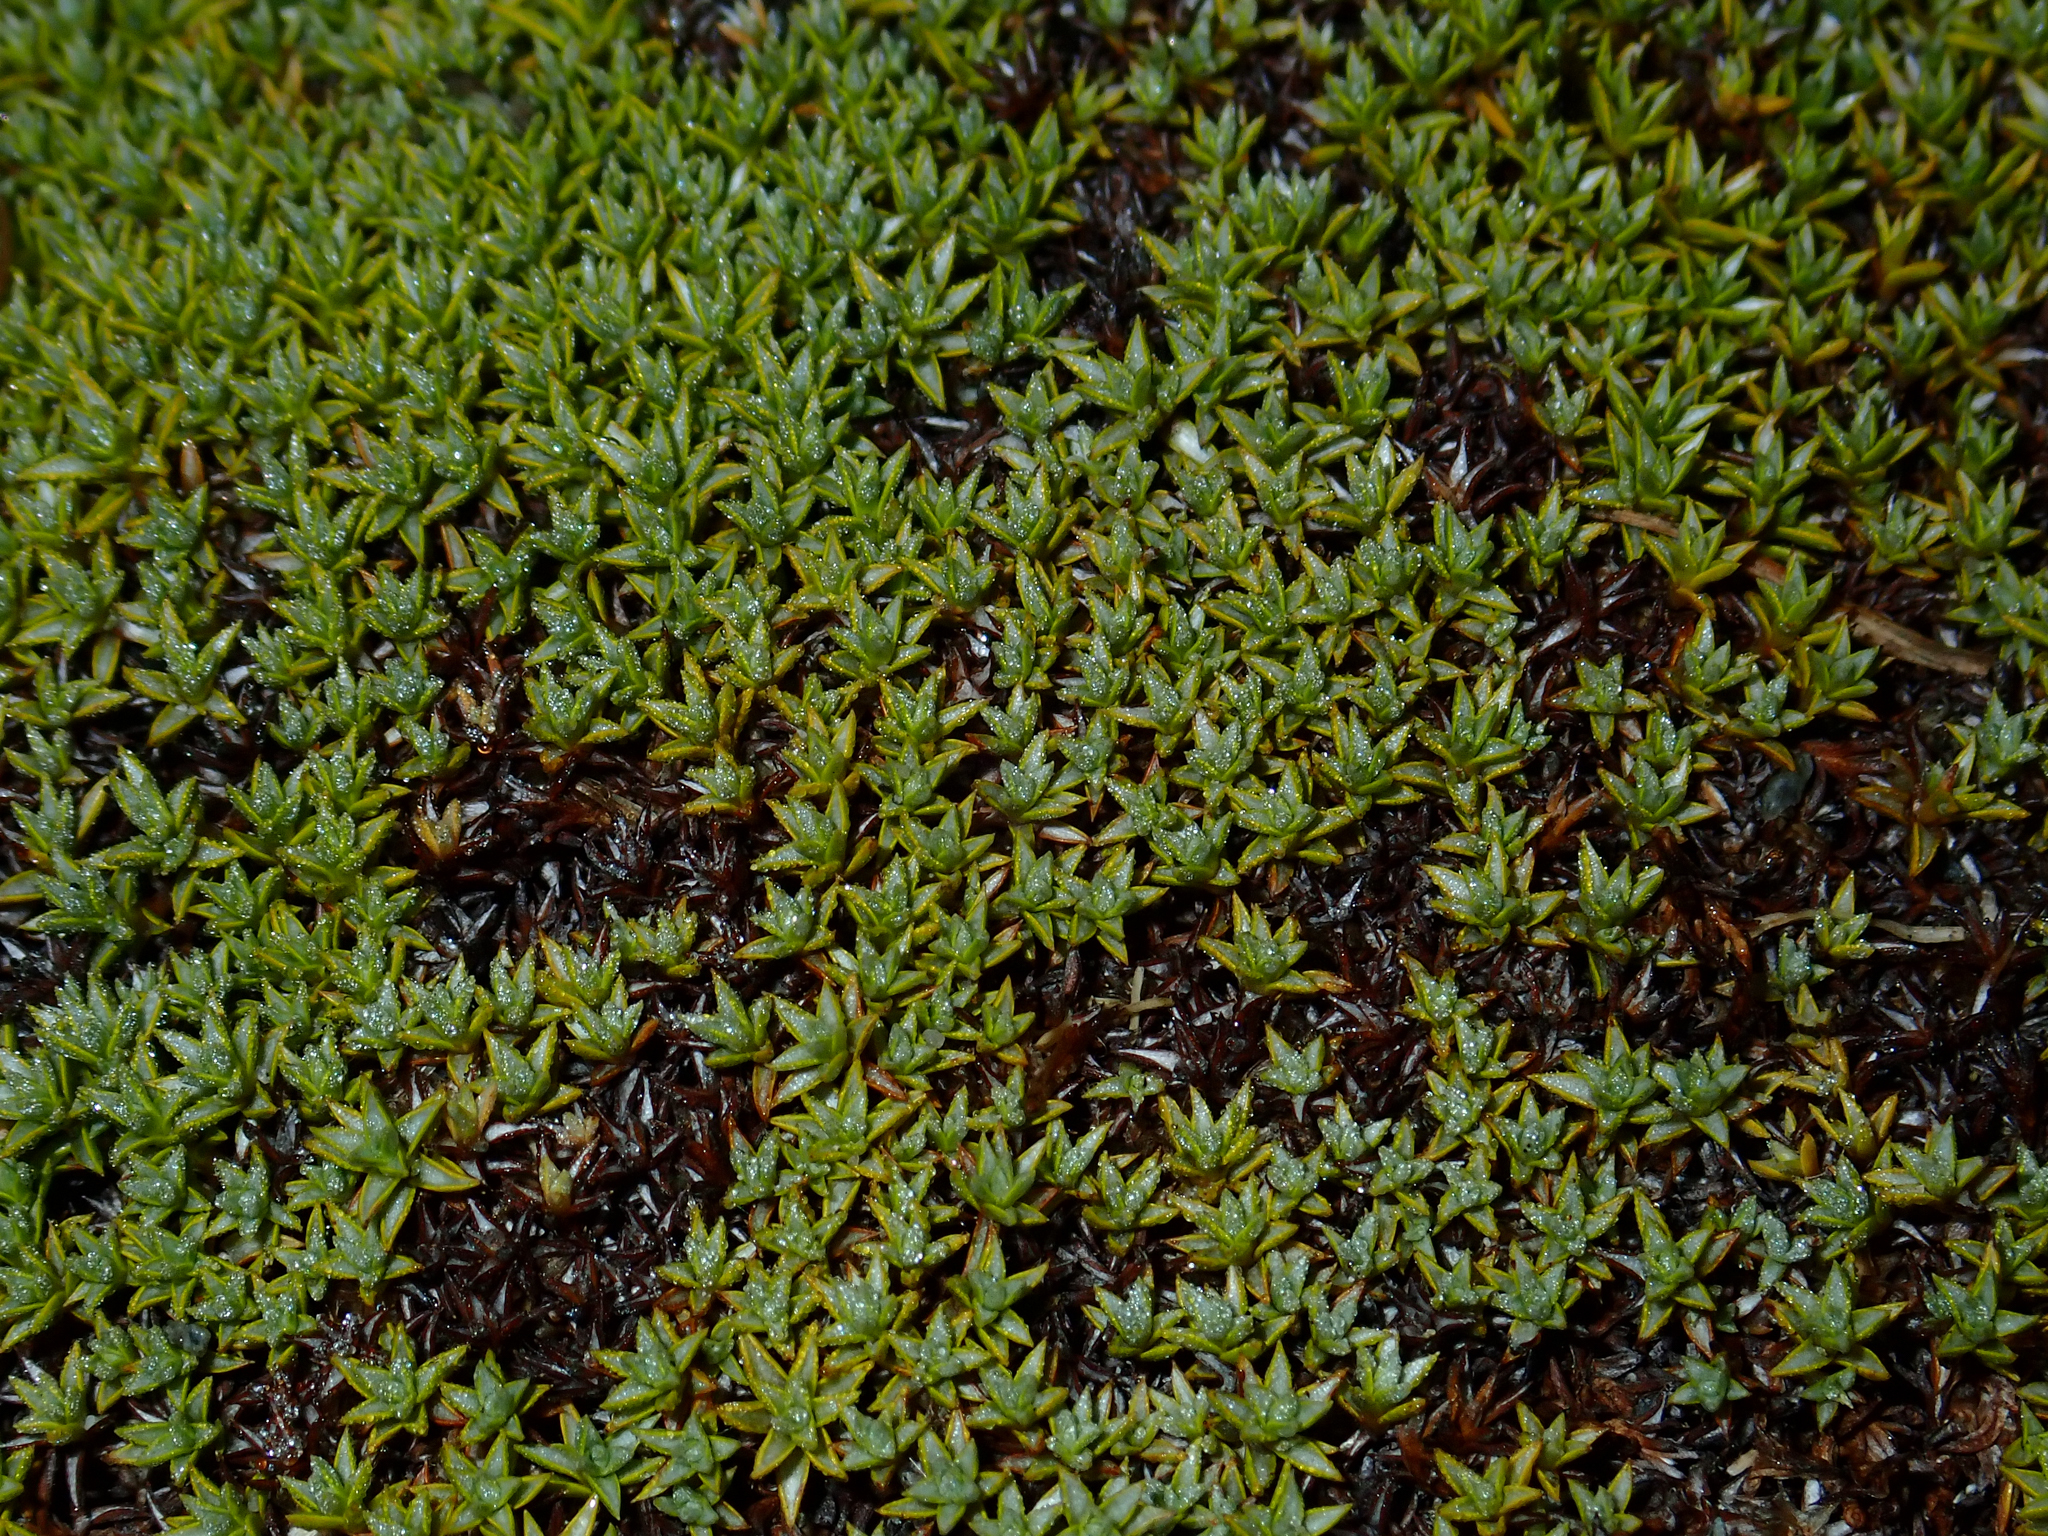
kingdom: Plantae
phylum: Tracheophyta
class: Magnoliopsida
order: Asterales
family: Asteraceae
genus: Raoulia
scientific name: Raoulia tenuicaulis
